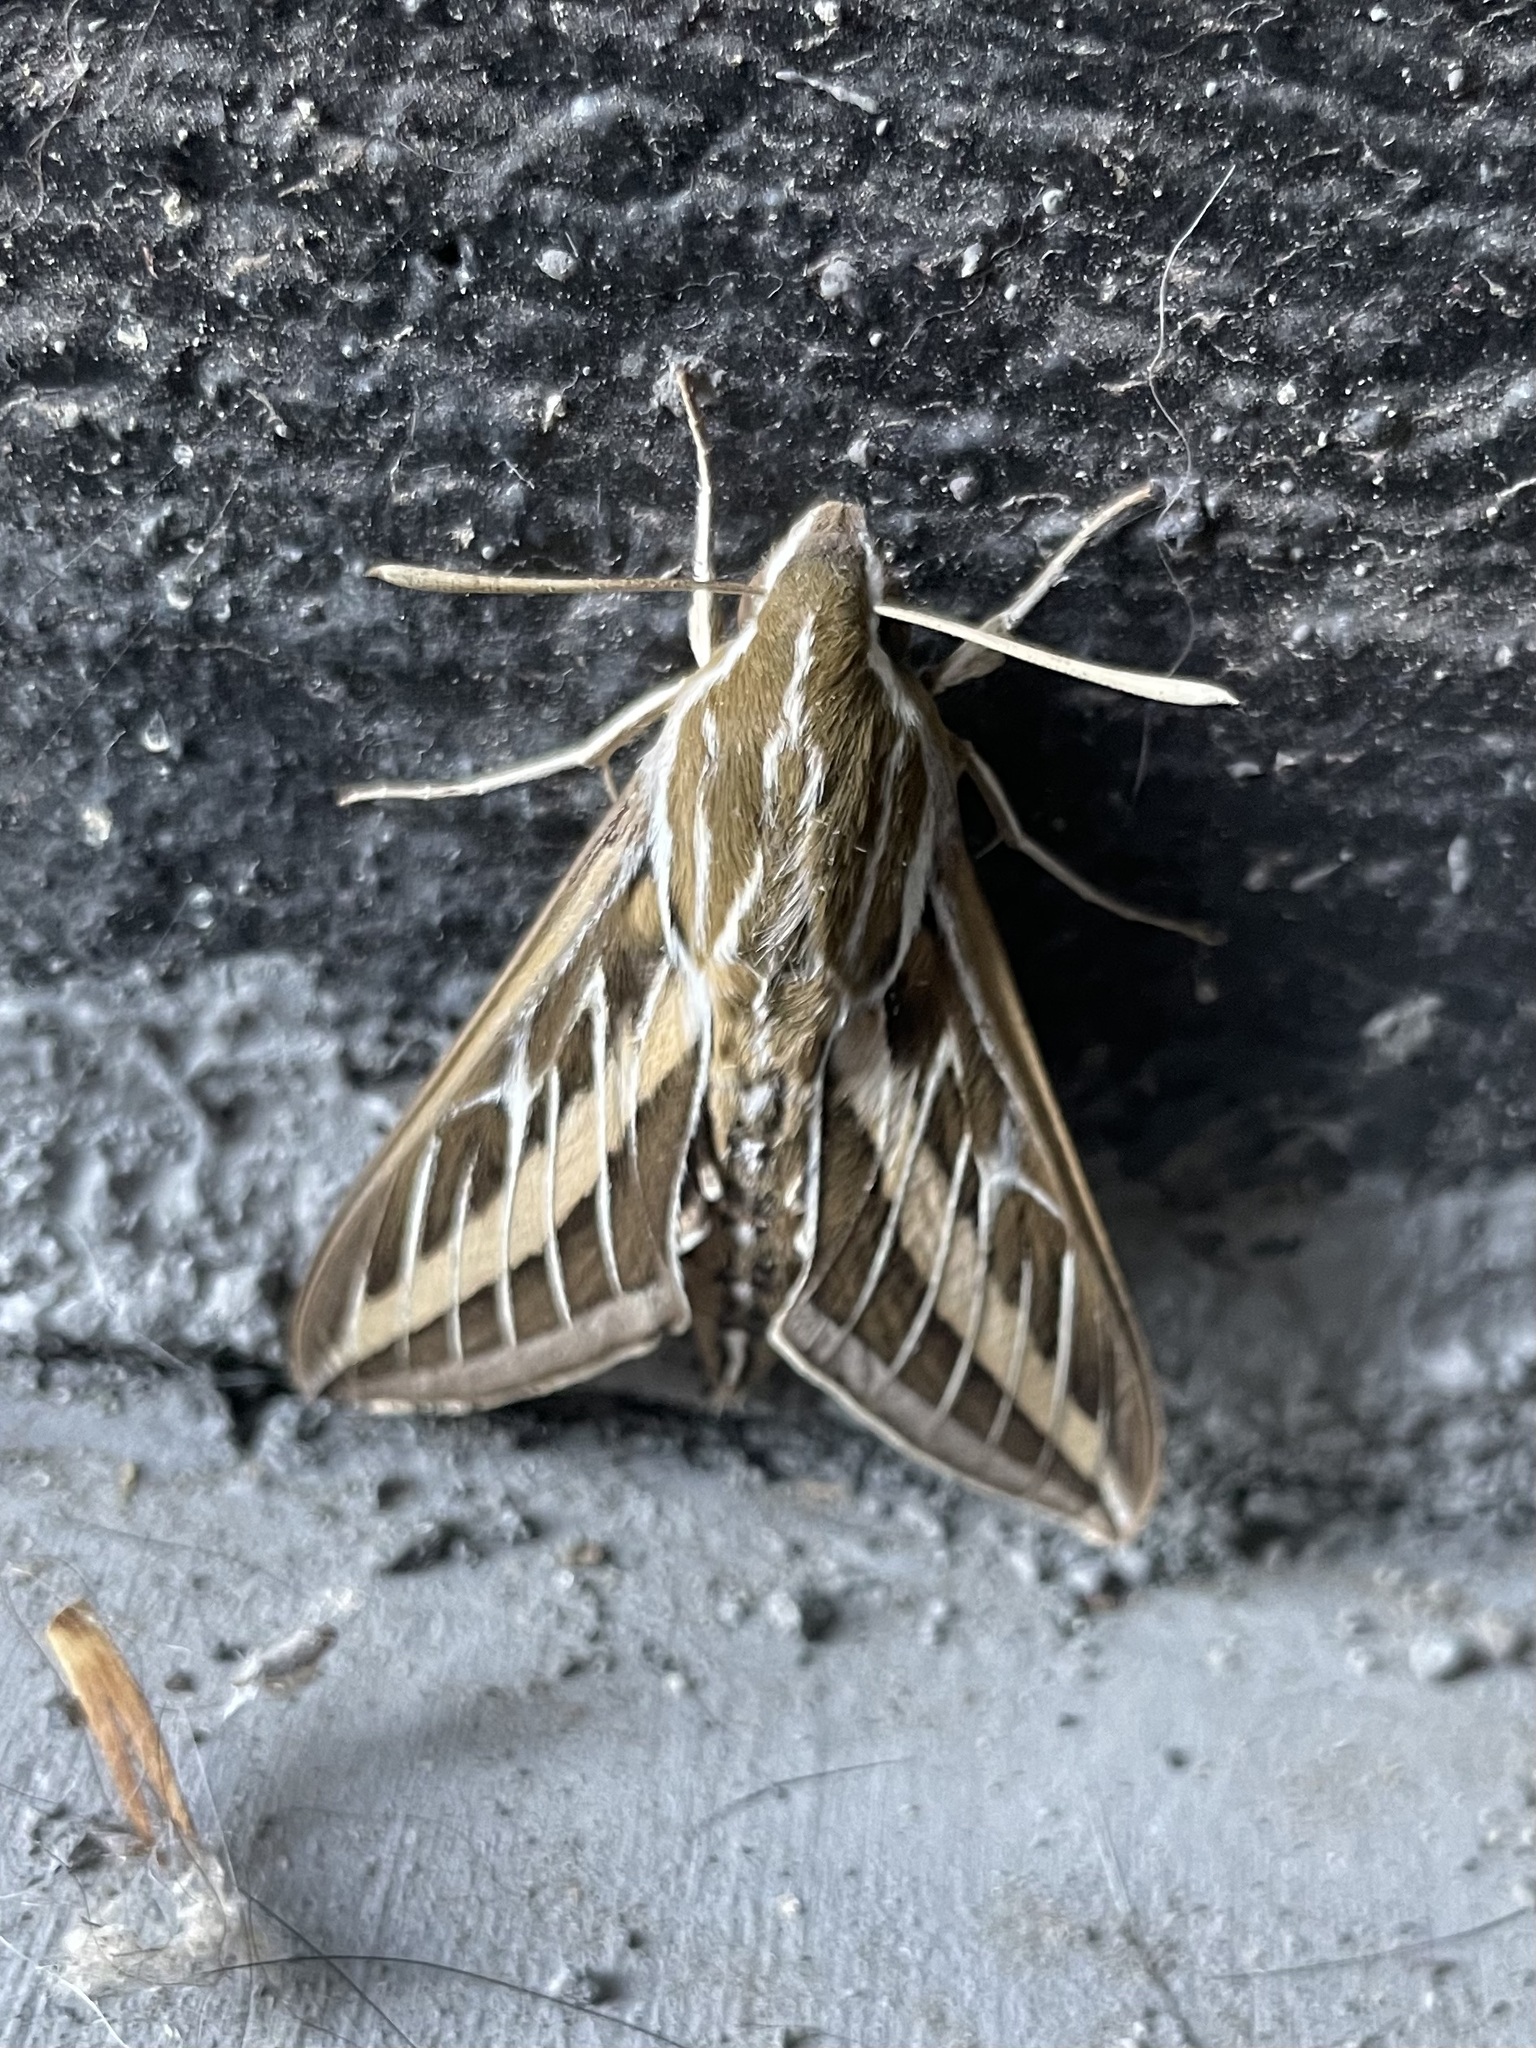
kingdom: Animalia
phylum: Arthropoda
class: Insecta
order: Lepidoptera
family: Sphingidae
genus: Hyles
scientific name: Hyles lineata
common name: White-lined sphinx
